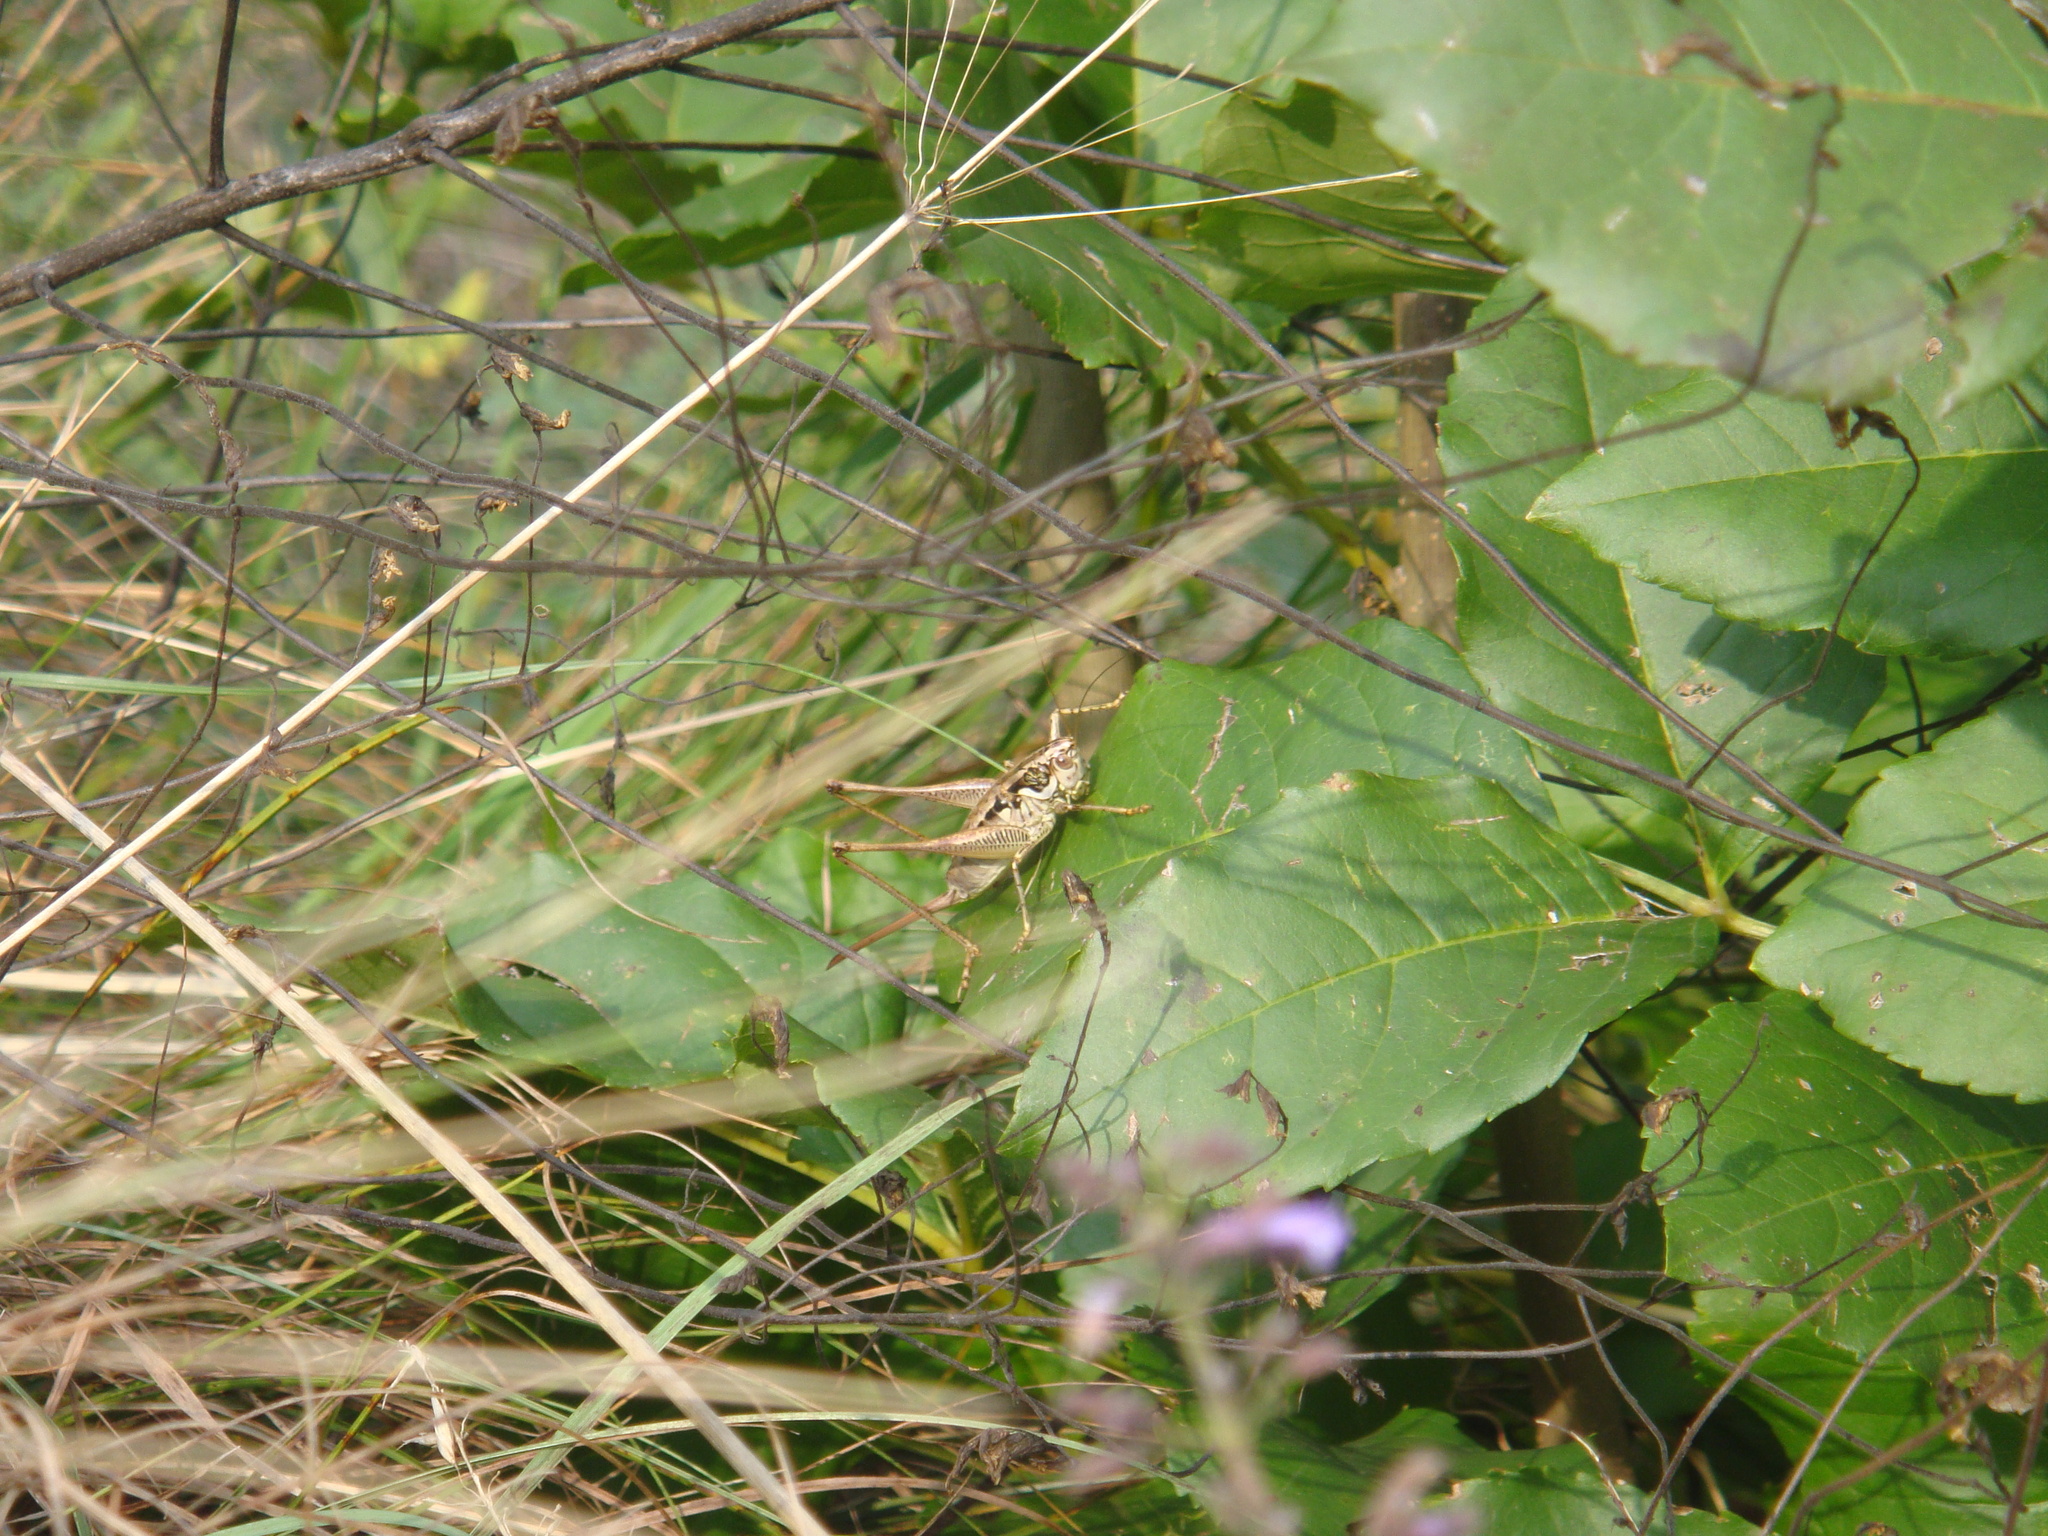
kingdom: Animalia
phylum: Arthropoda
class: Insecta
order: Orthoptera
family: Tettigoniidae
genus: Pachytrachis
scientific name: Pachytrachis striolatus
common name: Striated bush-cricket
